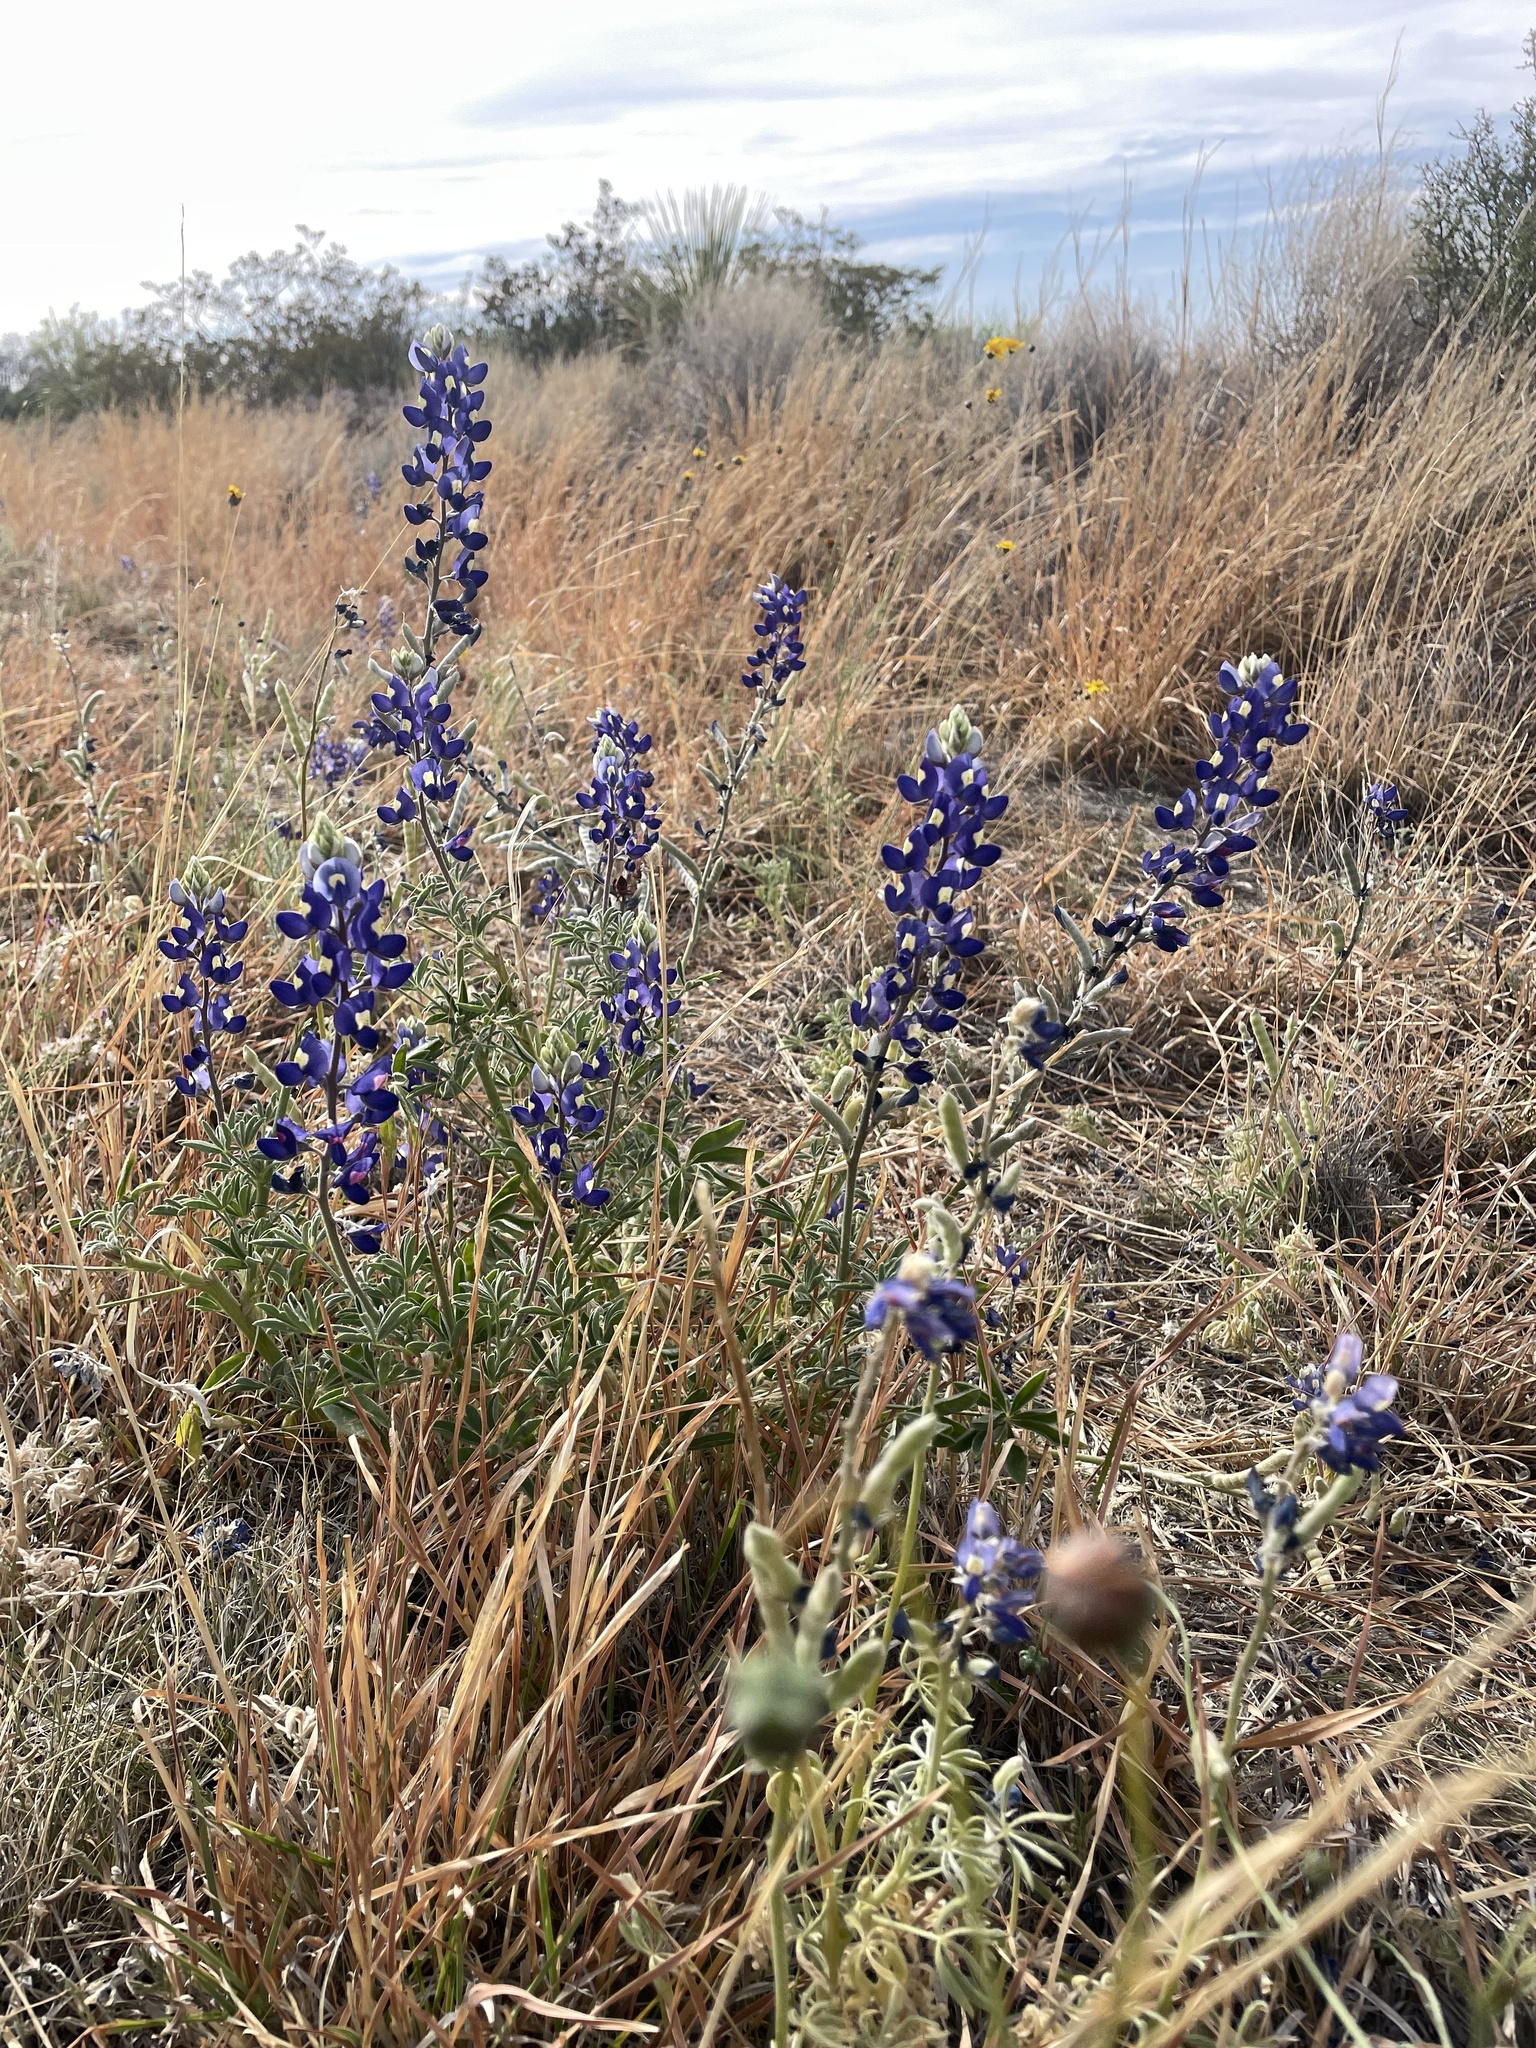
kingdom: Plantae
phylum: Tracheophyta
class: Magnoliopsida
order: Fabales
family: Fabaceae
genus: Lupinus
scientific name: Lupinus havardii
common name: Chisos bluebonnet
